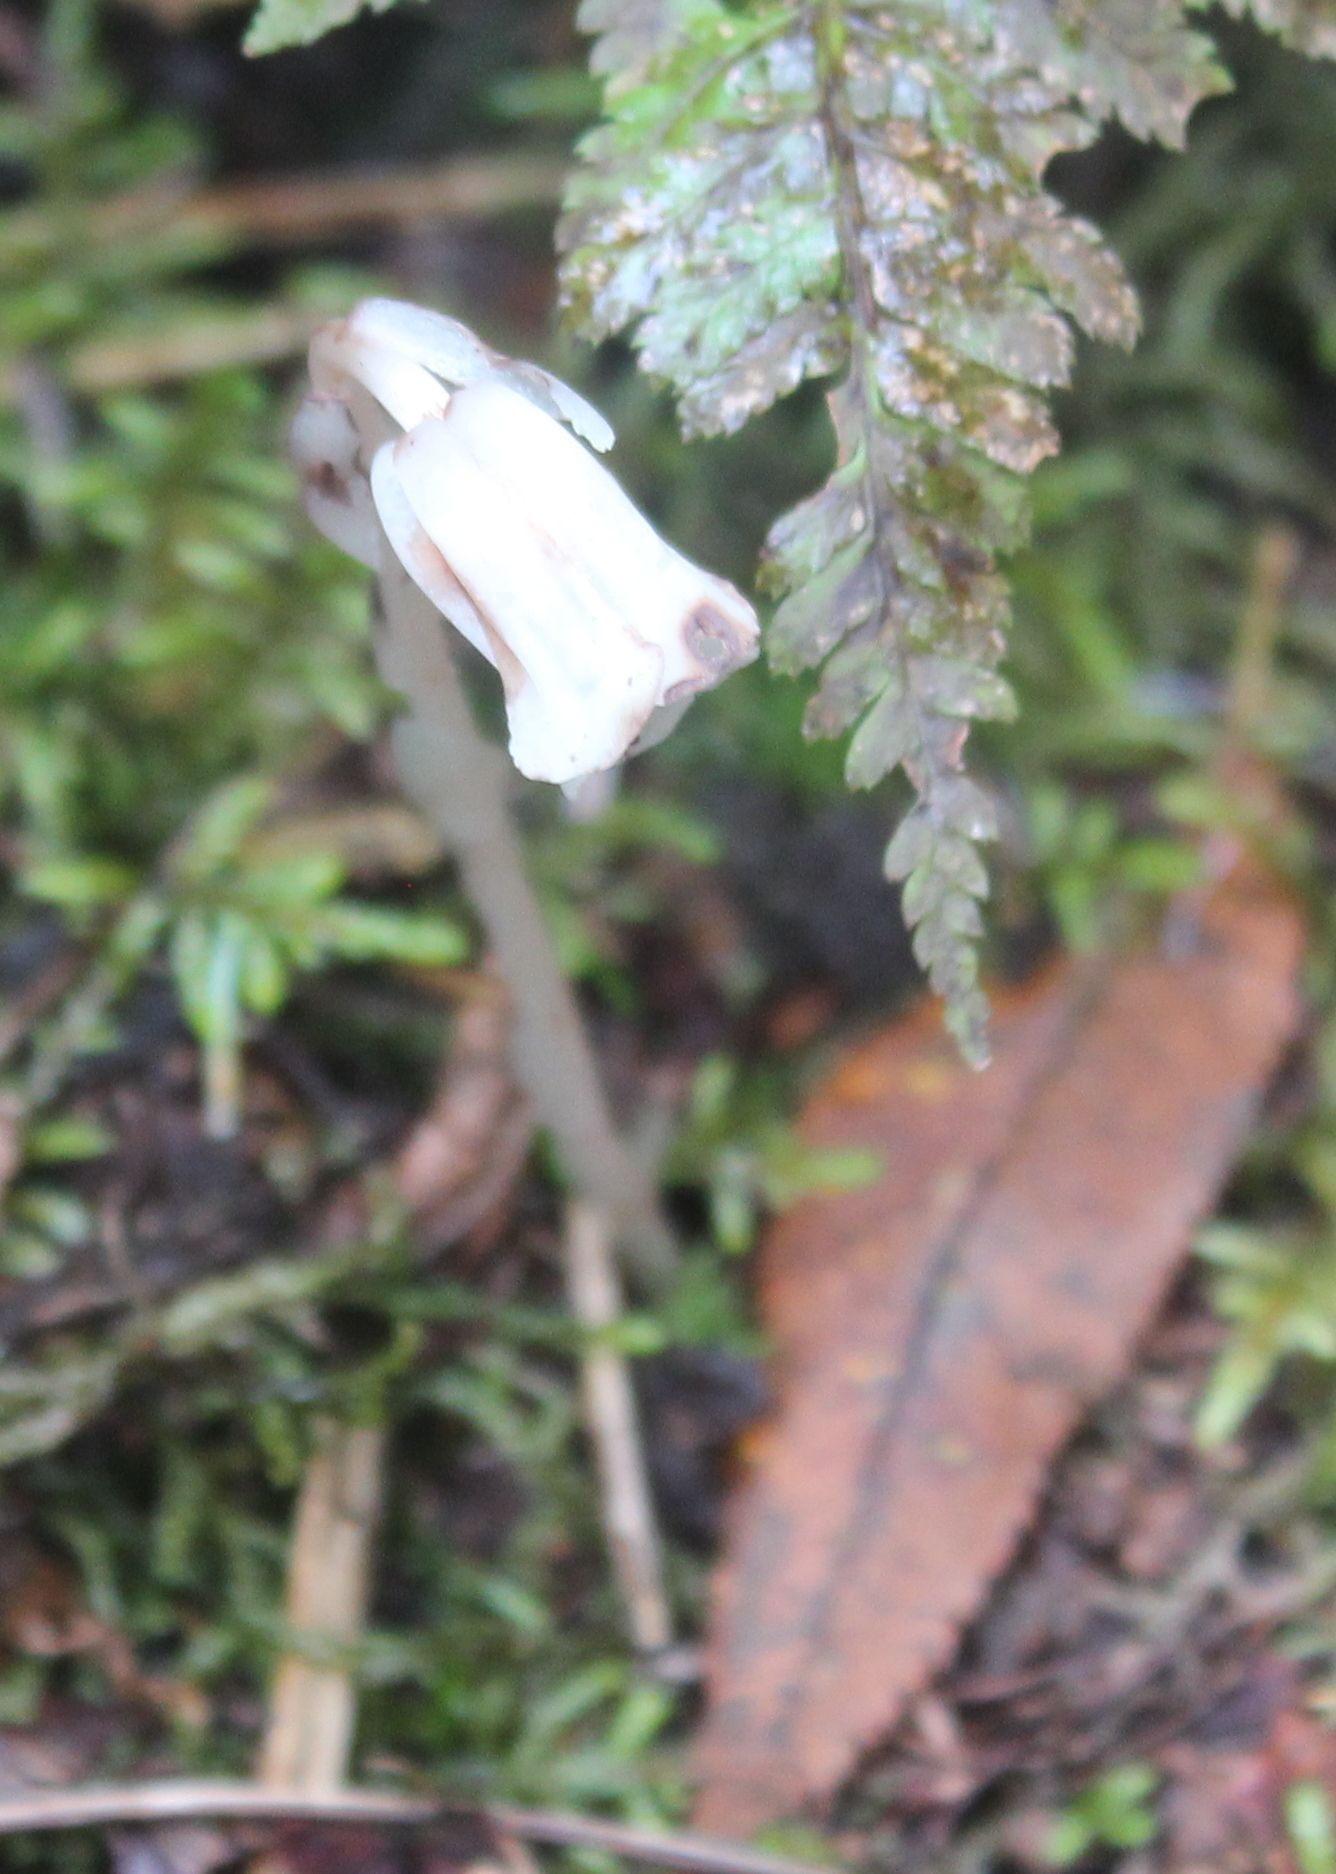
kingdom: Plantae
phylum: Tracheophyta
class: Magnoliopsida
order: Ericales
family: Ericaceae
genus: Monotropa
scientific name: Monotropa uniflora
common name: Convulsion root
